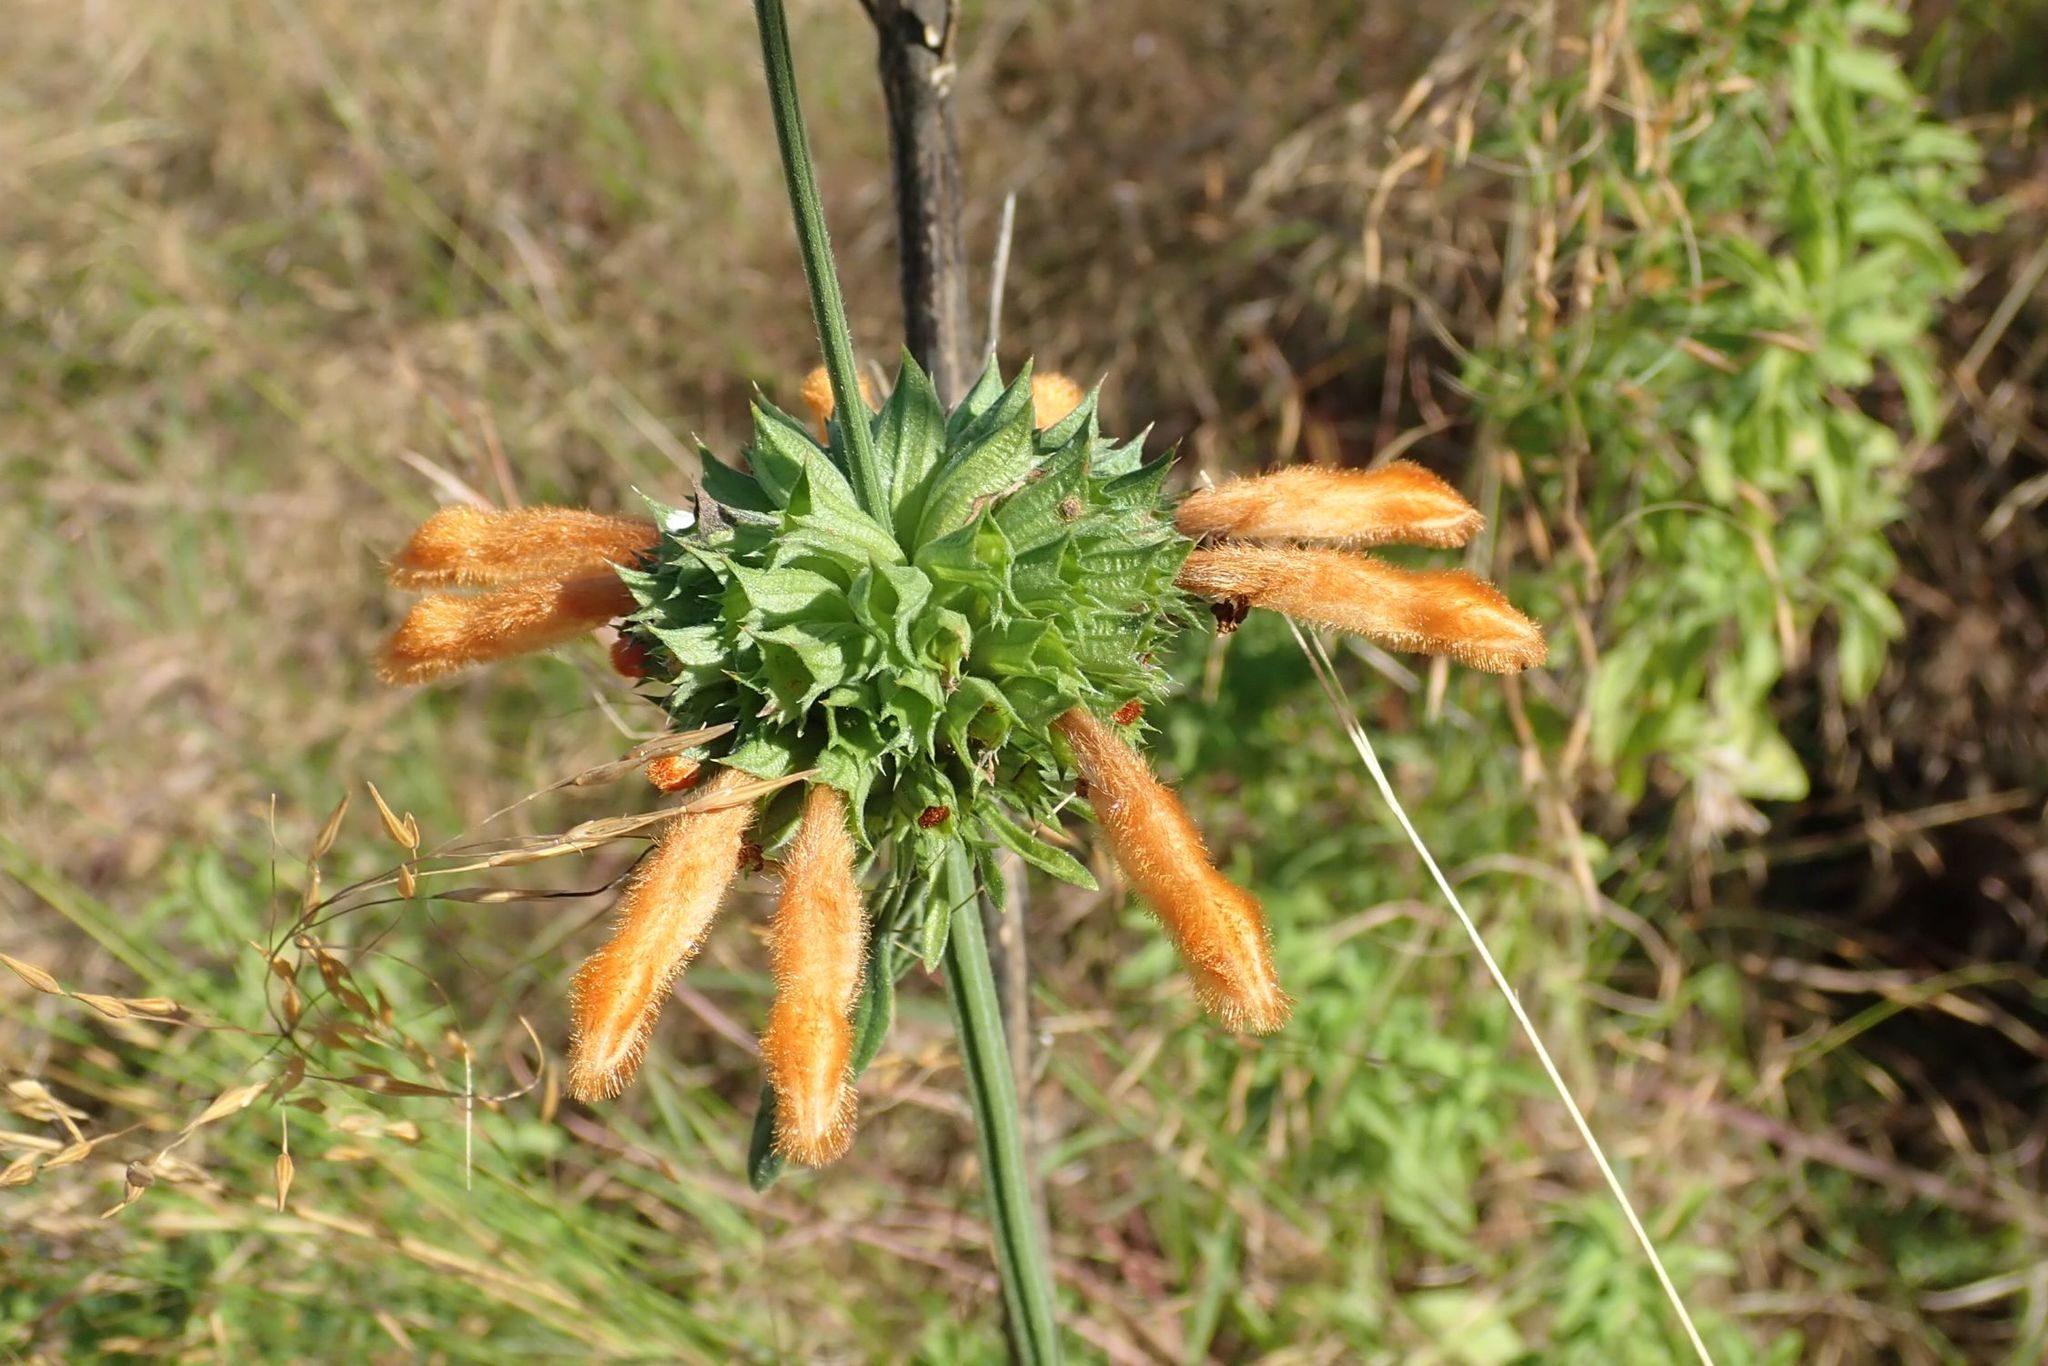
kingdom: Plantae
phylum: Tracheophyta
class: Magnoliopsida
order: Lamiales
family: Lamiaceae
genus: Leonotis
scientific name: Leonotis ocymifolia
